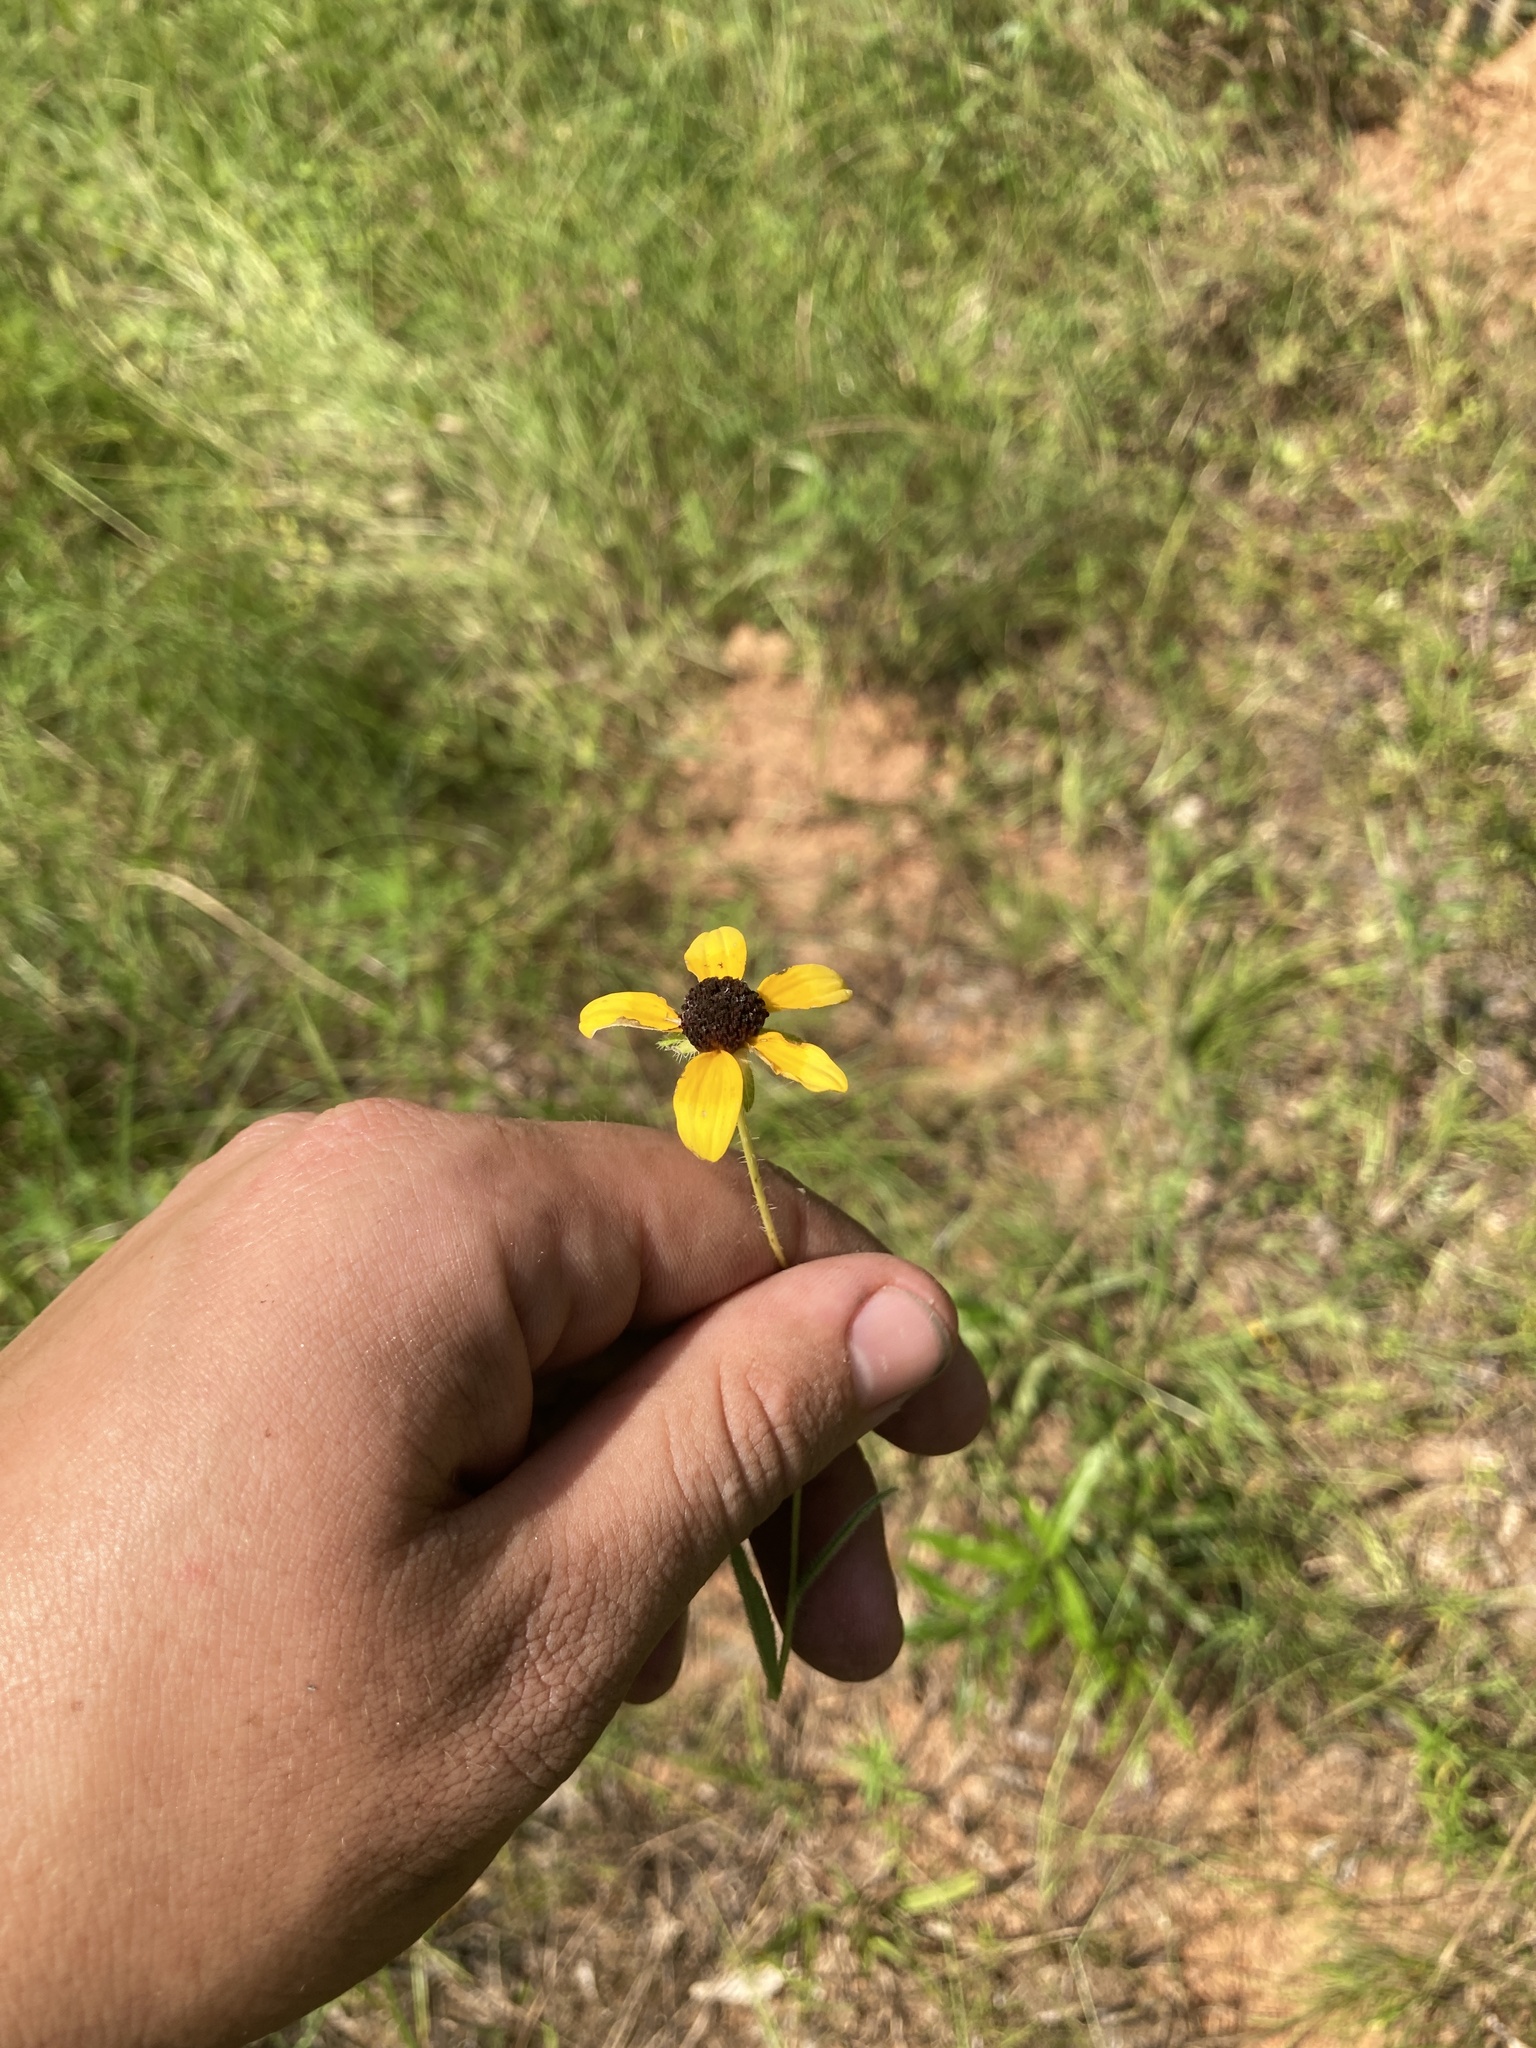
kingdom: Plantae
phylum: Tracheophyta
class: Magnoliopsida
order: Asterales
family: Asteraceae
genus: Rudbeckia
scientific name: Rudbeckia hirta
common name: Black-eyed-susan
